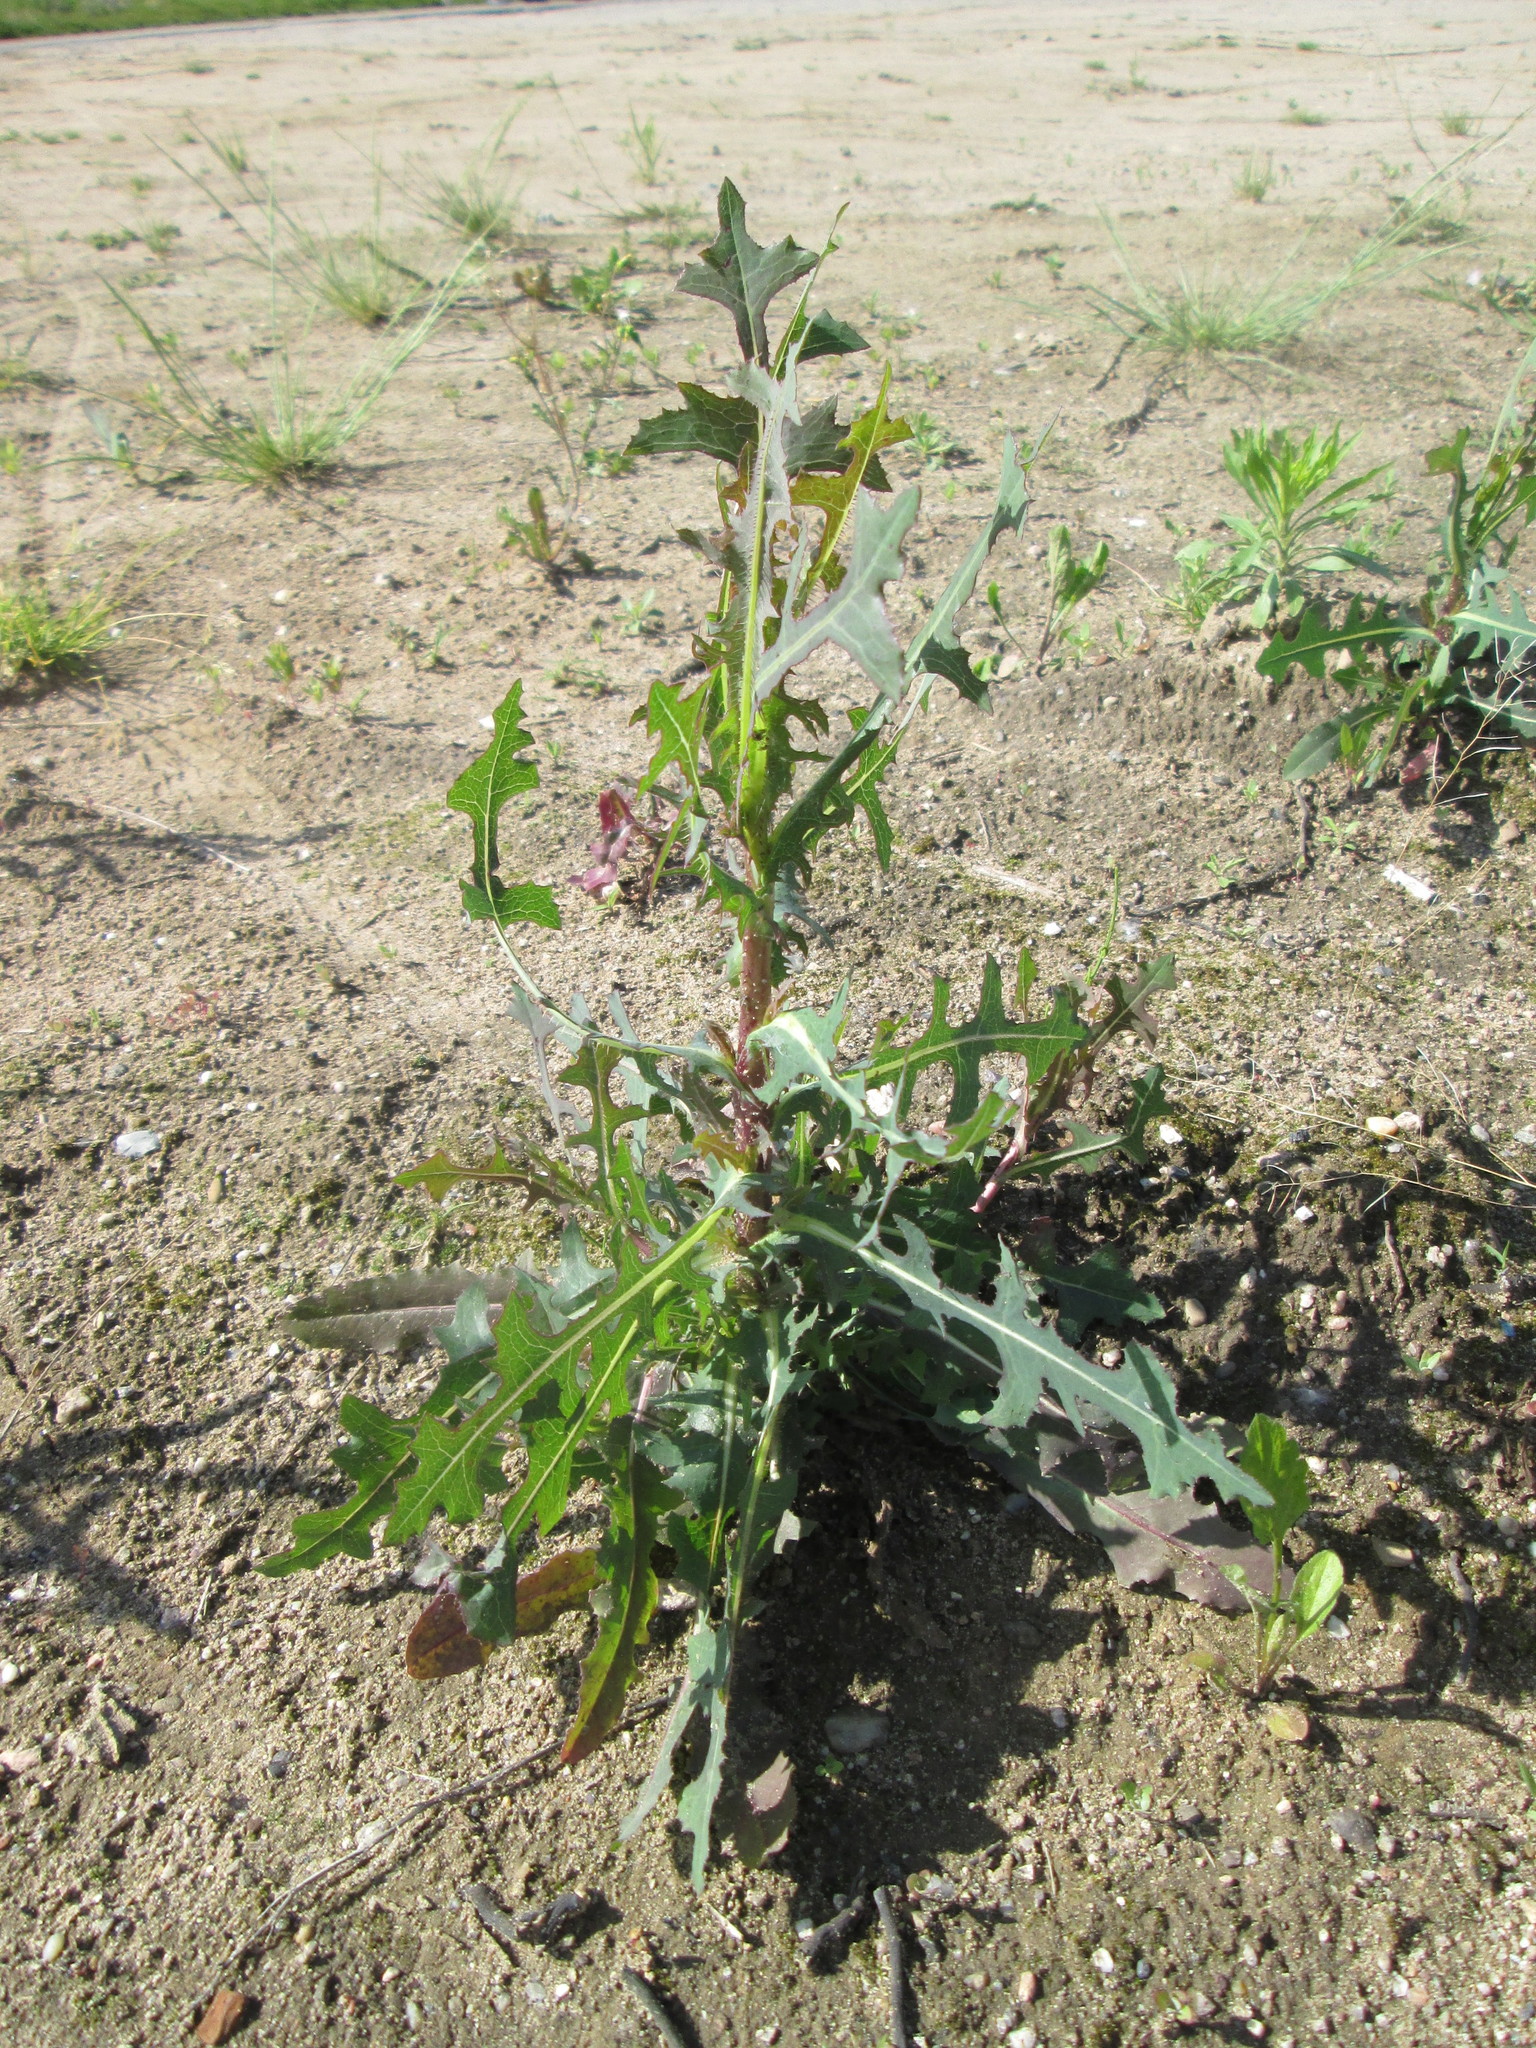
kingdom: Plantae
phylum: Tracheophyta
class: Magnoliopsida
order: Asterales
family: Asteraceae
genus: Lactuca
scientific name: Lactuca serriola
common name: Prickly lettuce
